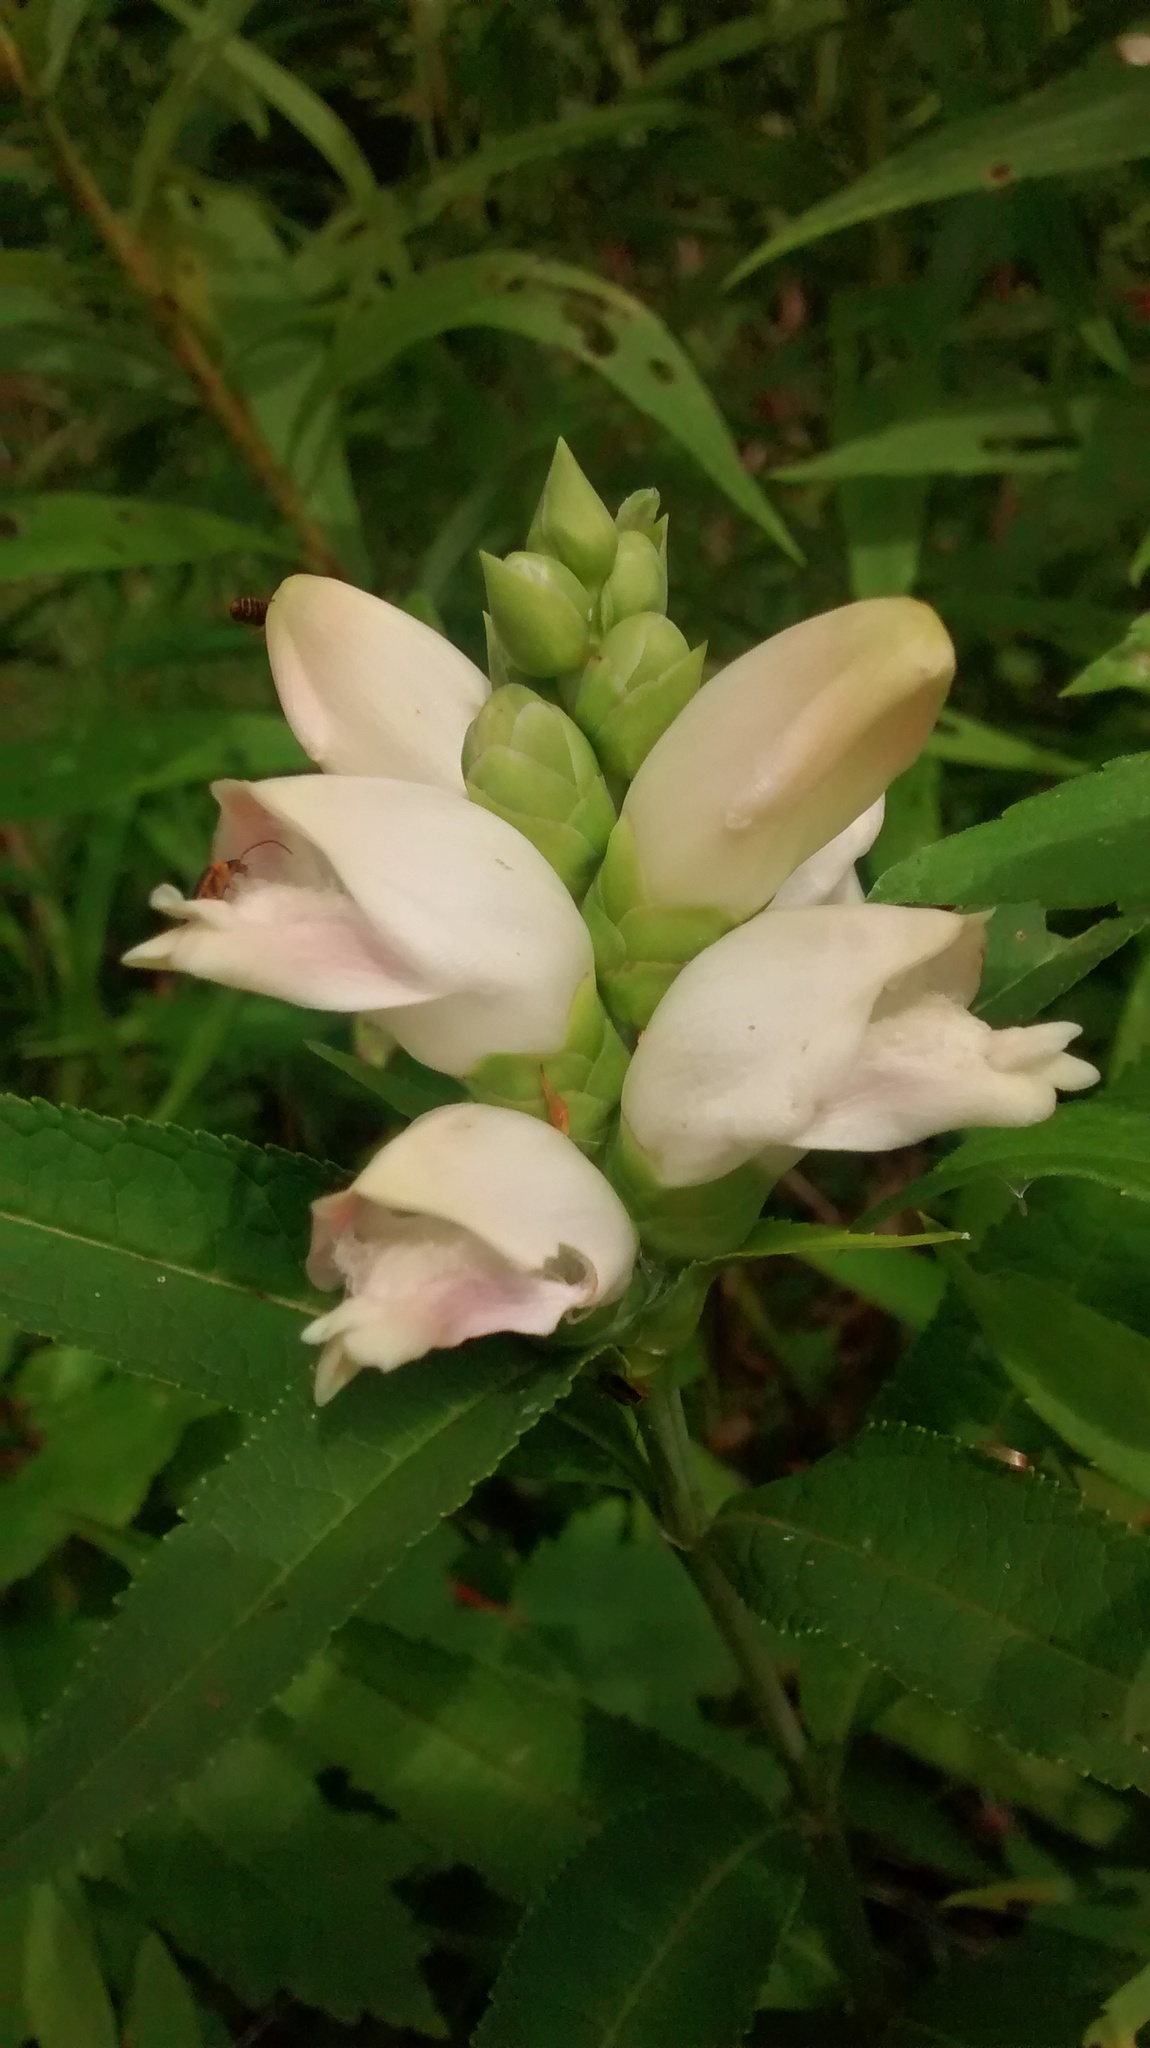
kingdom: Plantae
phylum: Tracheophyta
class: Magnoliopsida
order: Lamiales
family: Plantaginaceae
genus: Chelone
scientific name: Chelone glabra
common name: Snakehead
